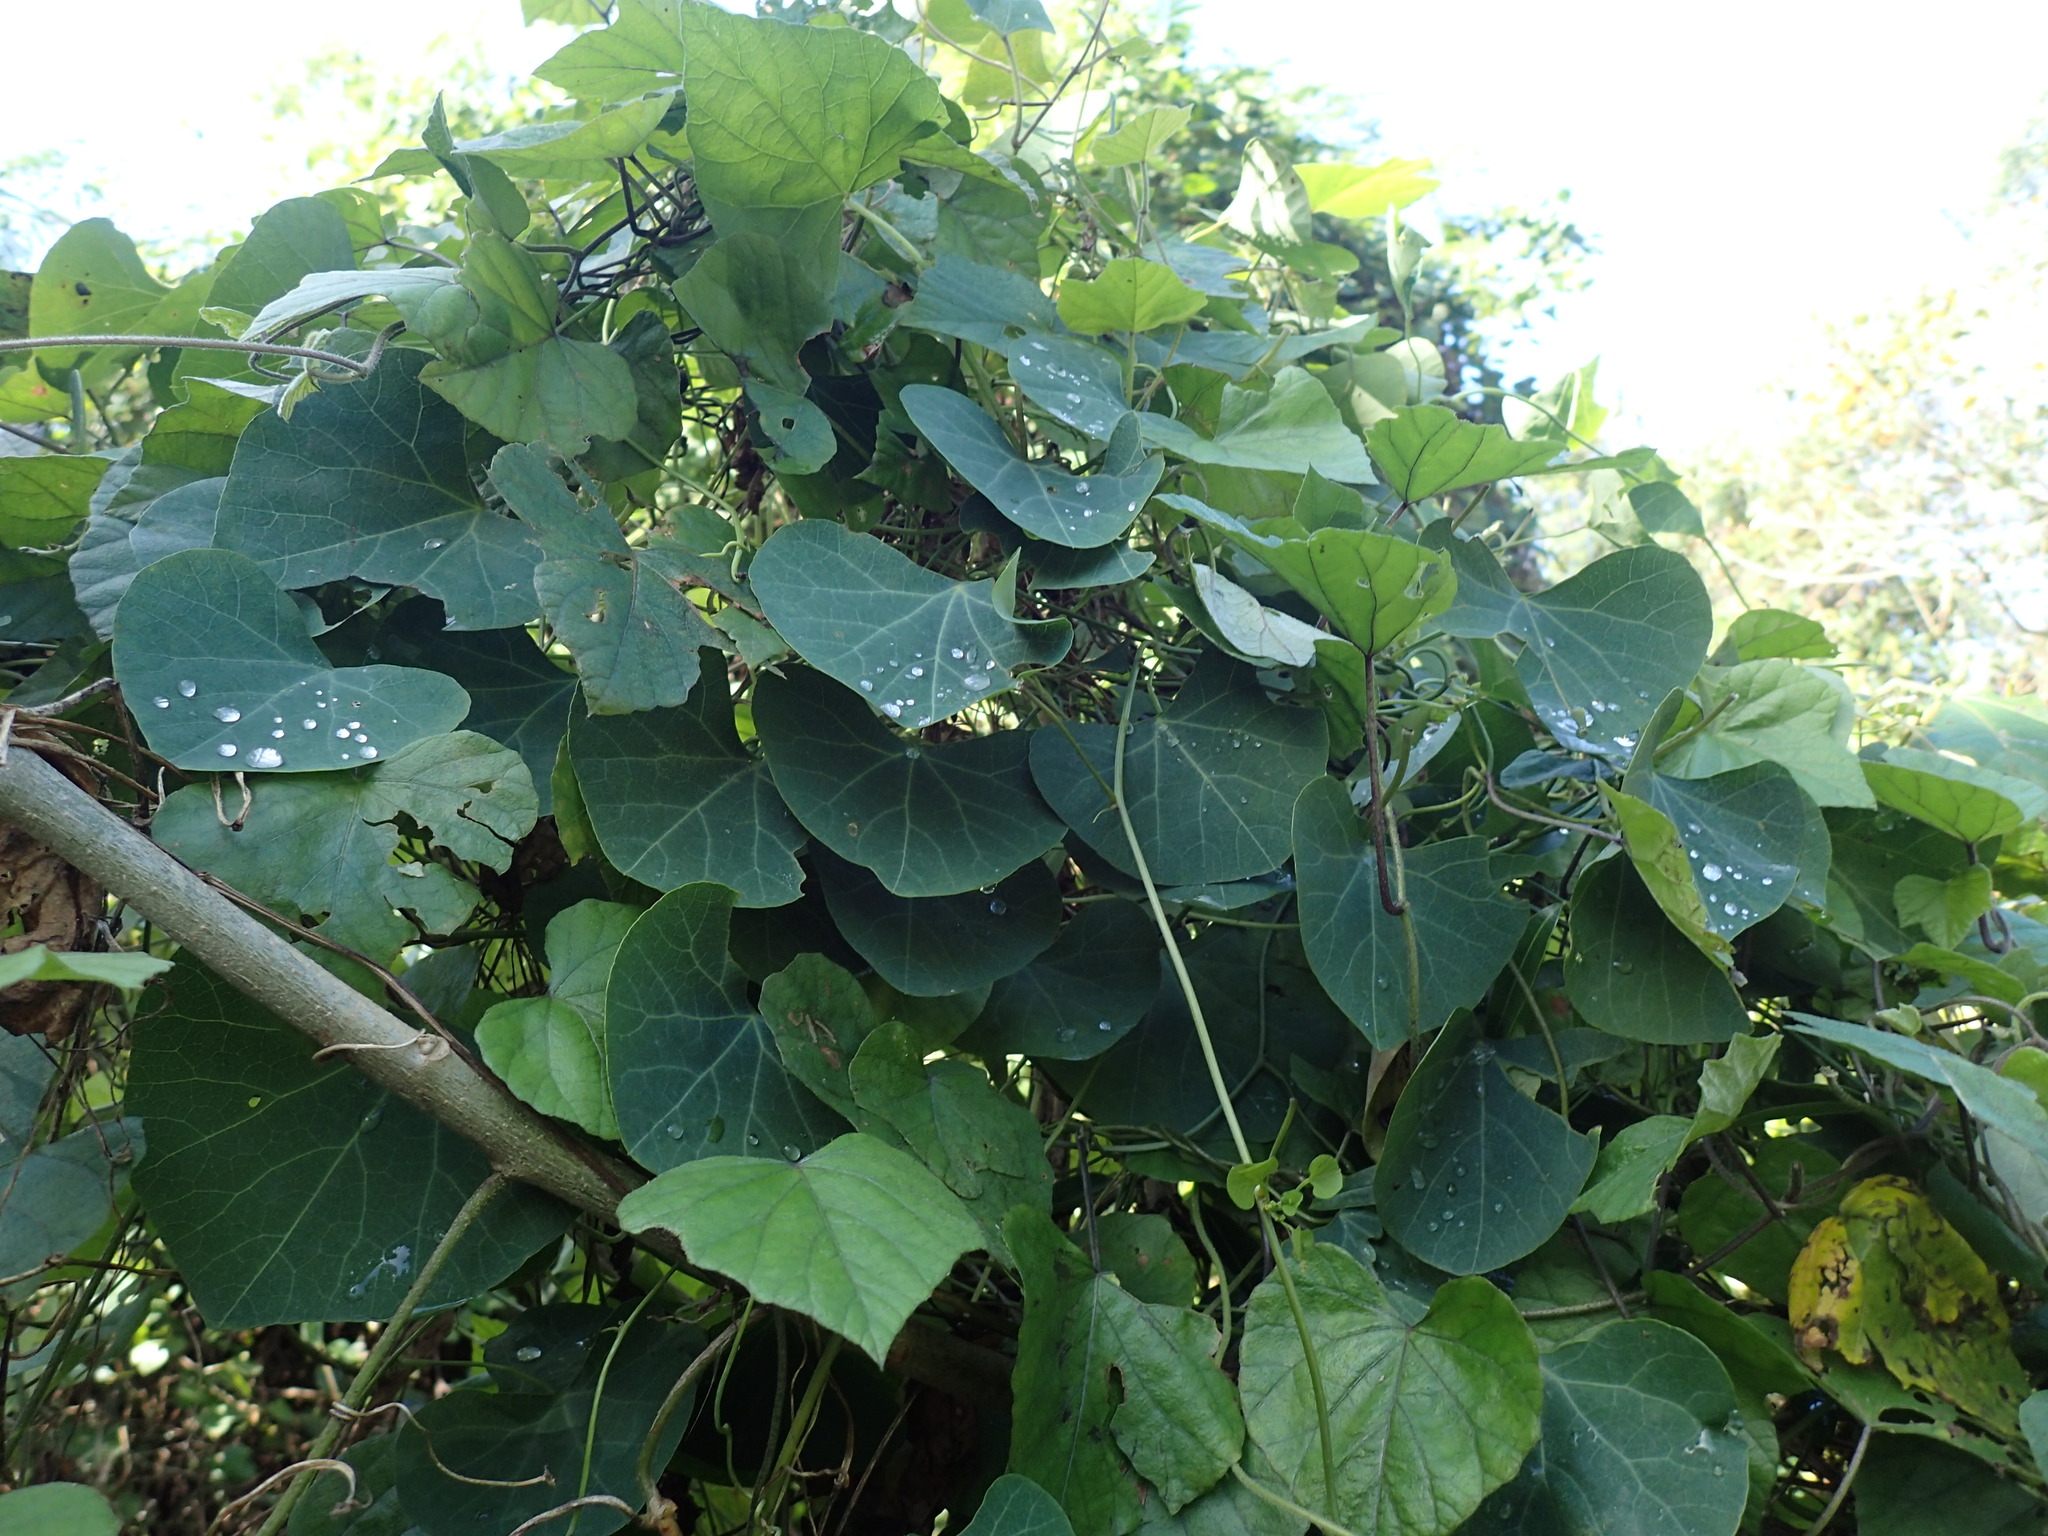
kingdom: Plantae
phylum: Tracheophyta
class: Magnoliopsida
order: Ranunculales
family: Menispermaceae
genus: Cissampelos
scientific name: Cissampelos torulosa
